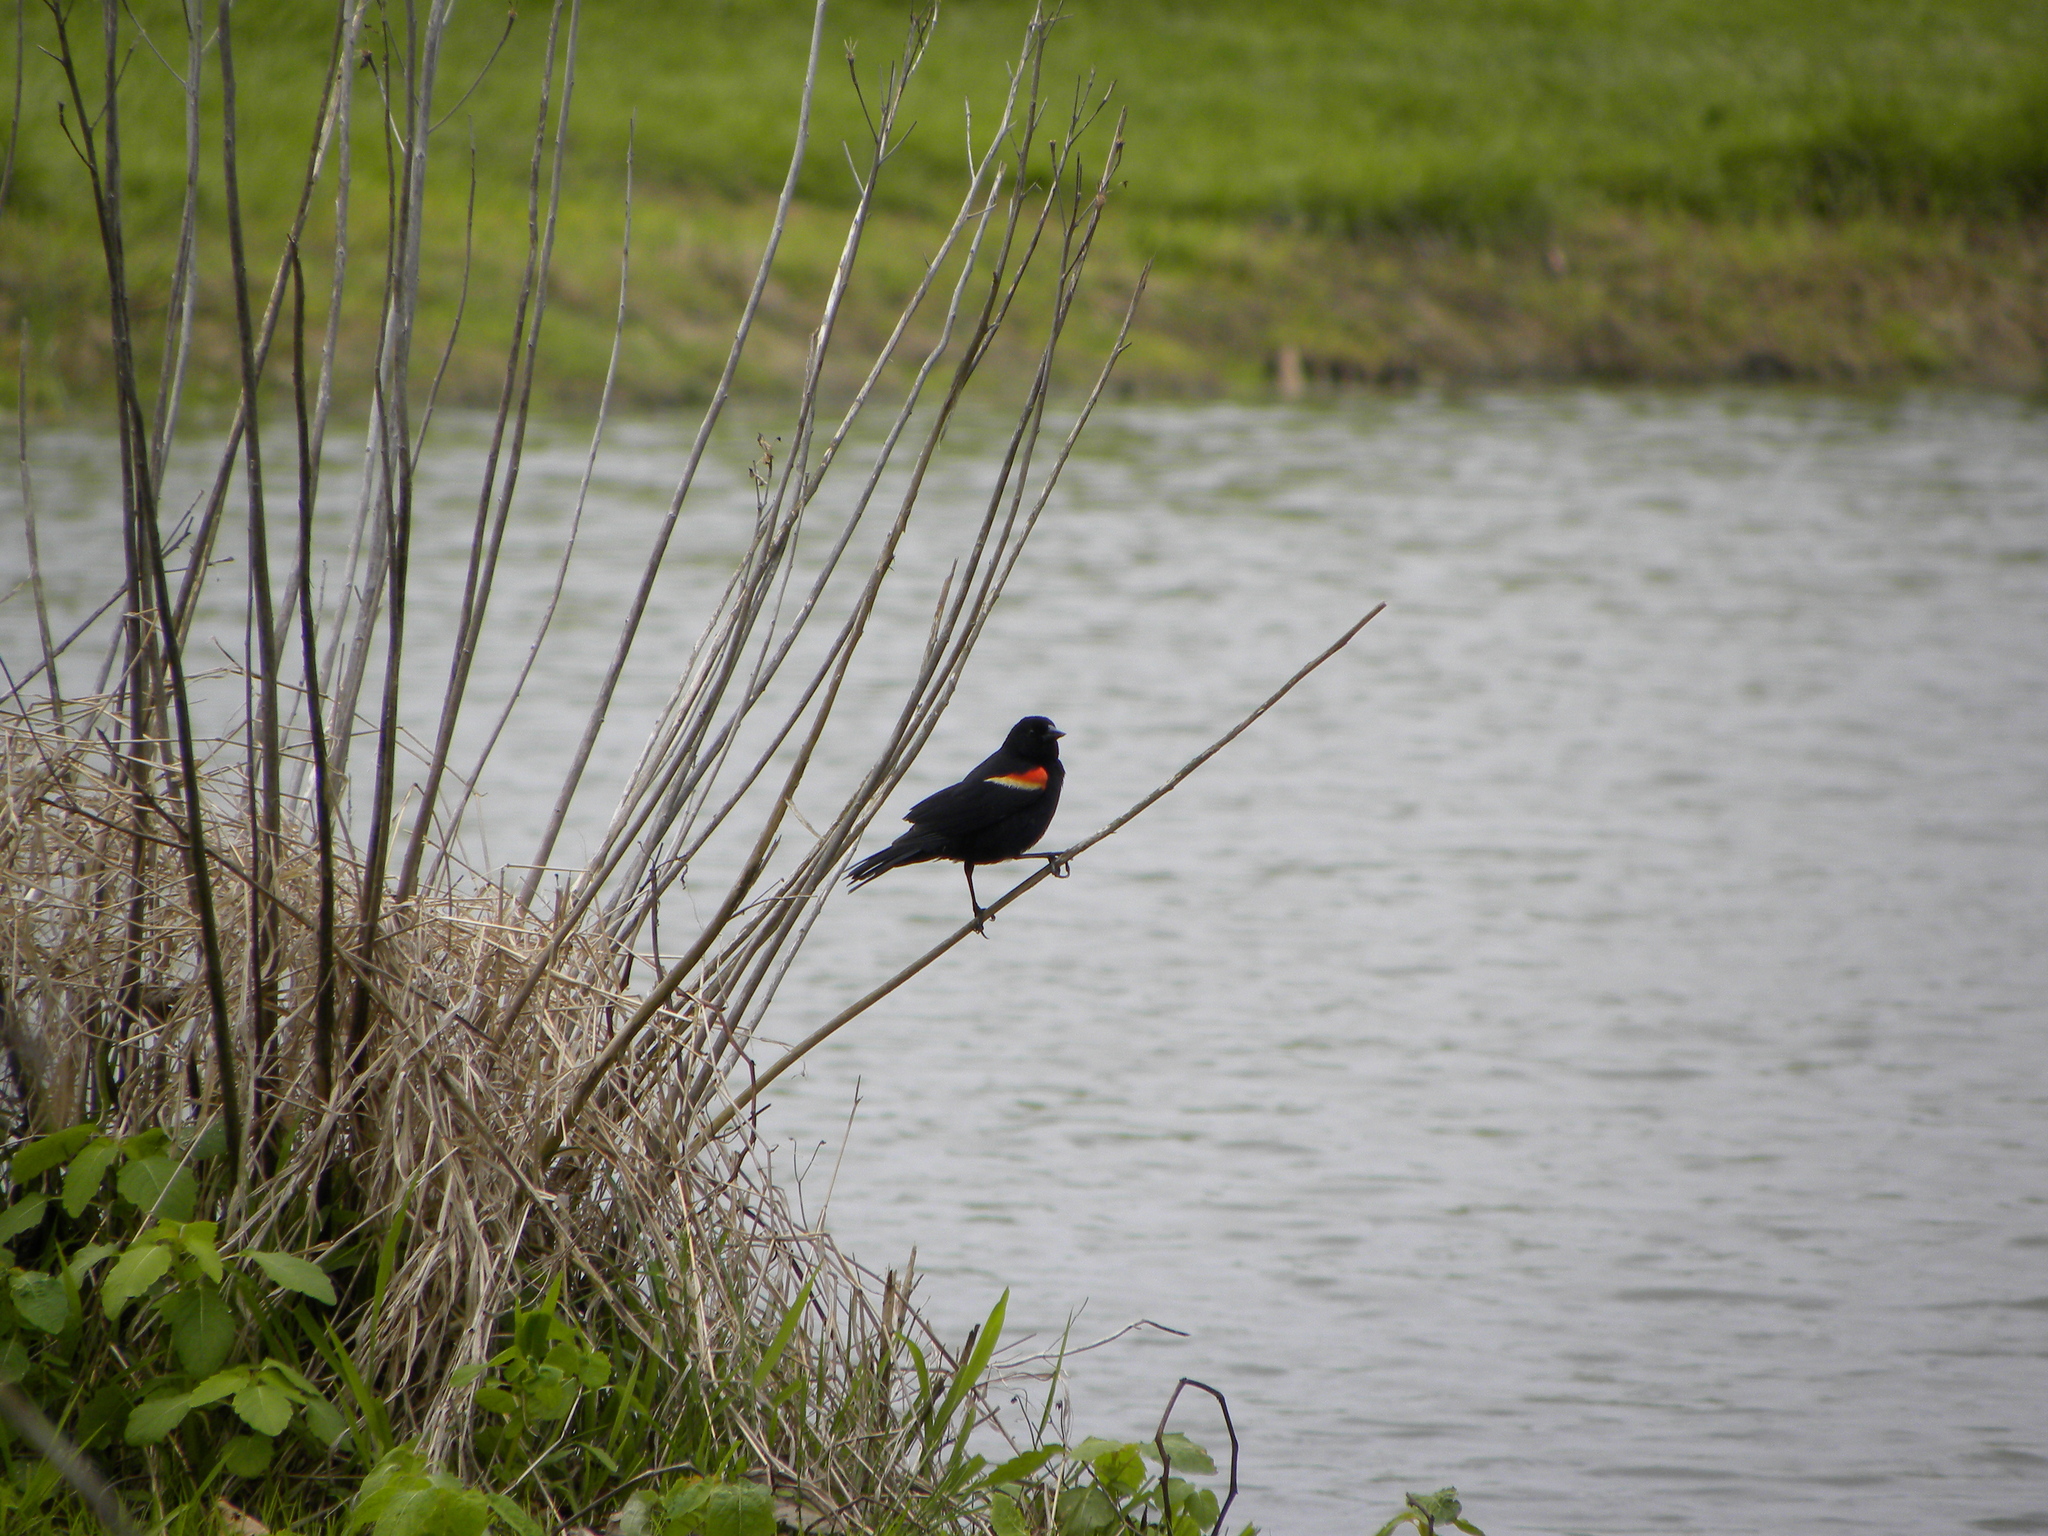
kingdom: Animalia
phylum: Chordata
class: Aves
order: Passeriformes
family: Icteridae
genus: Agelaius
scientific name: Agelaius phoeniceus
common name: Red-winged blackbird
